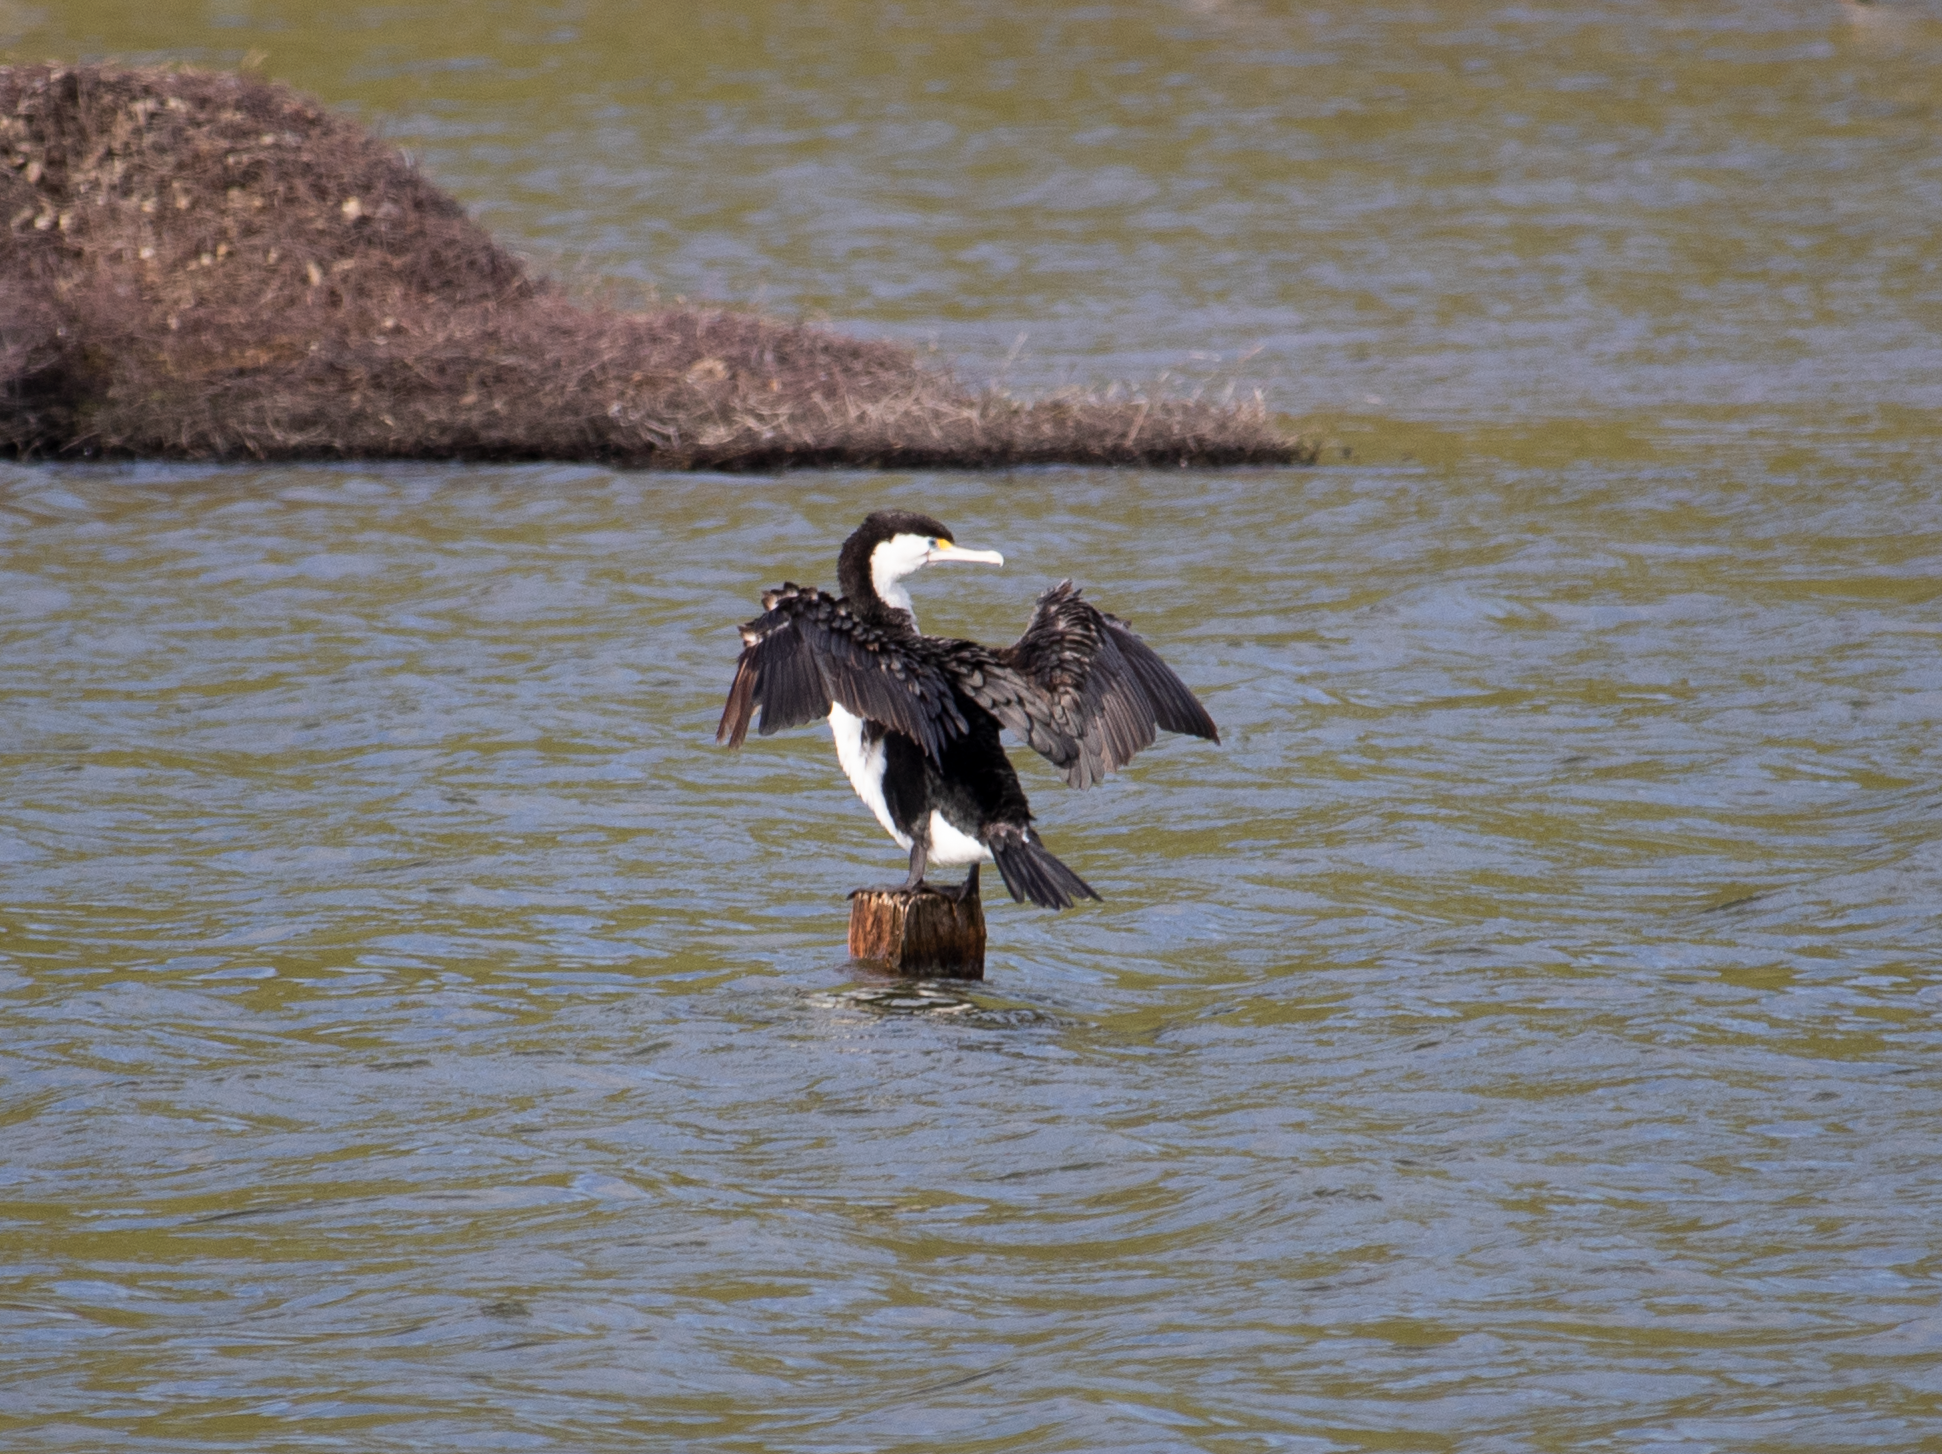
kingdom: Animalia
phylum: Chordata
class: Aves
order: Suliformes
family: Phalacrocoracidae
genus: Phalacrocorax
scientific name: Phalacrocorax varius
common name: Pied cormorant
